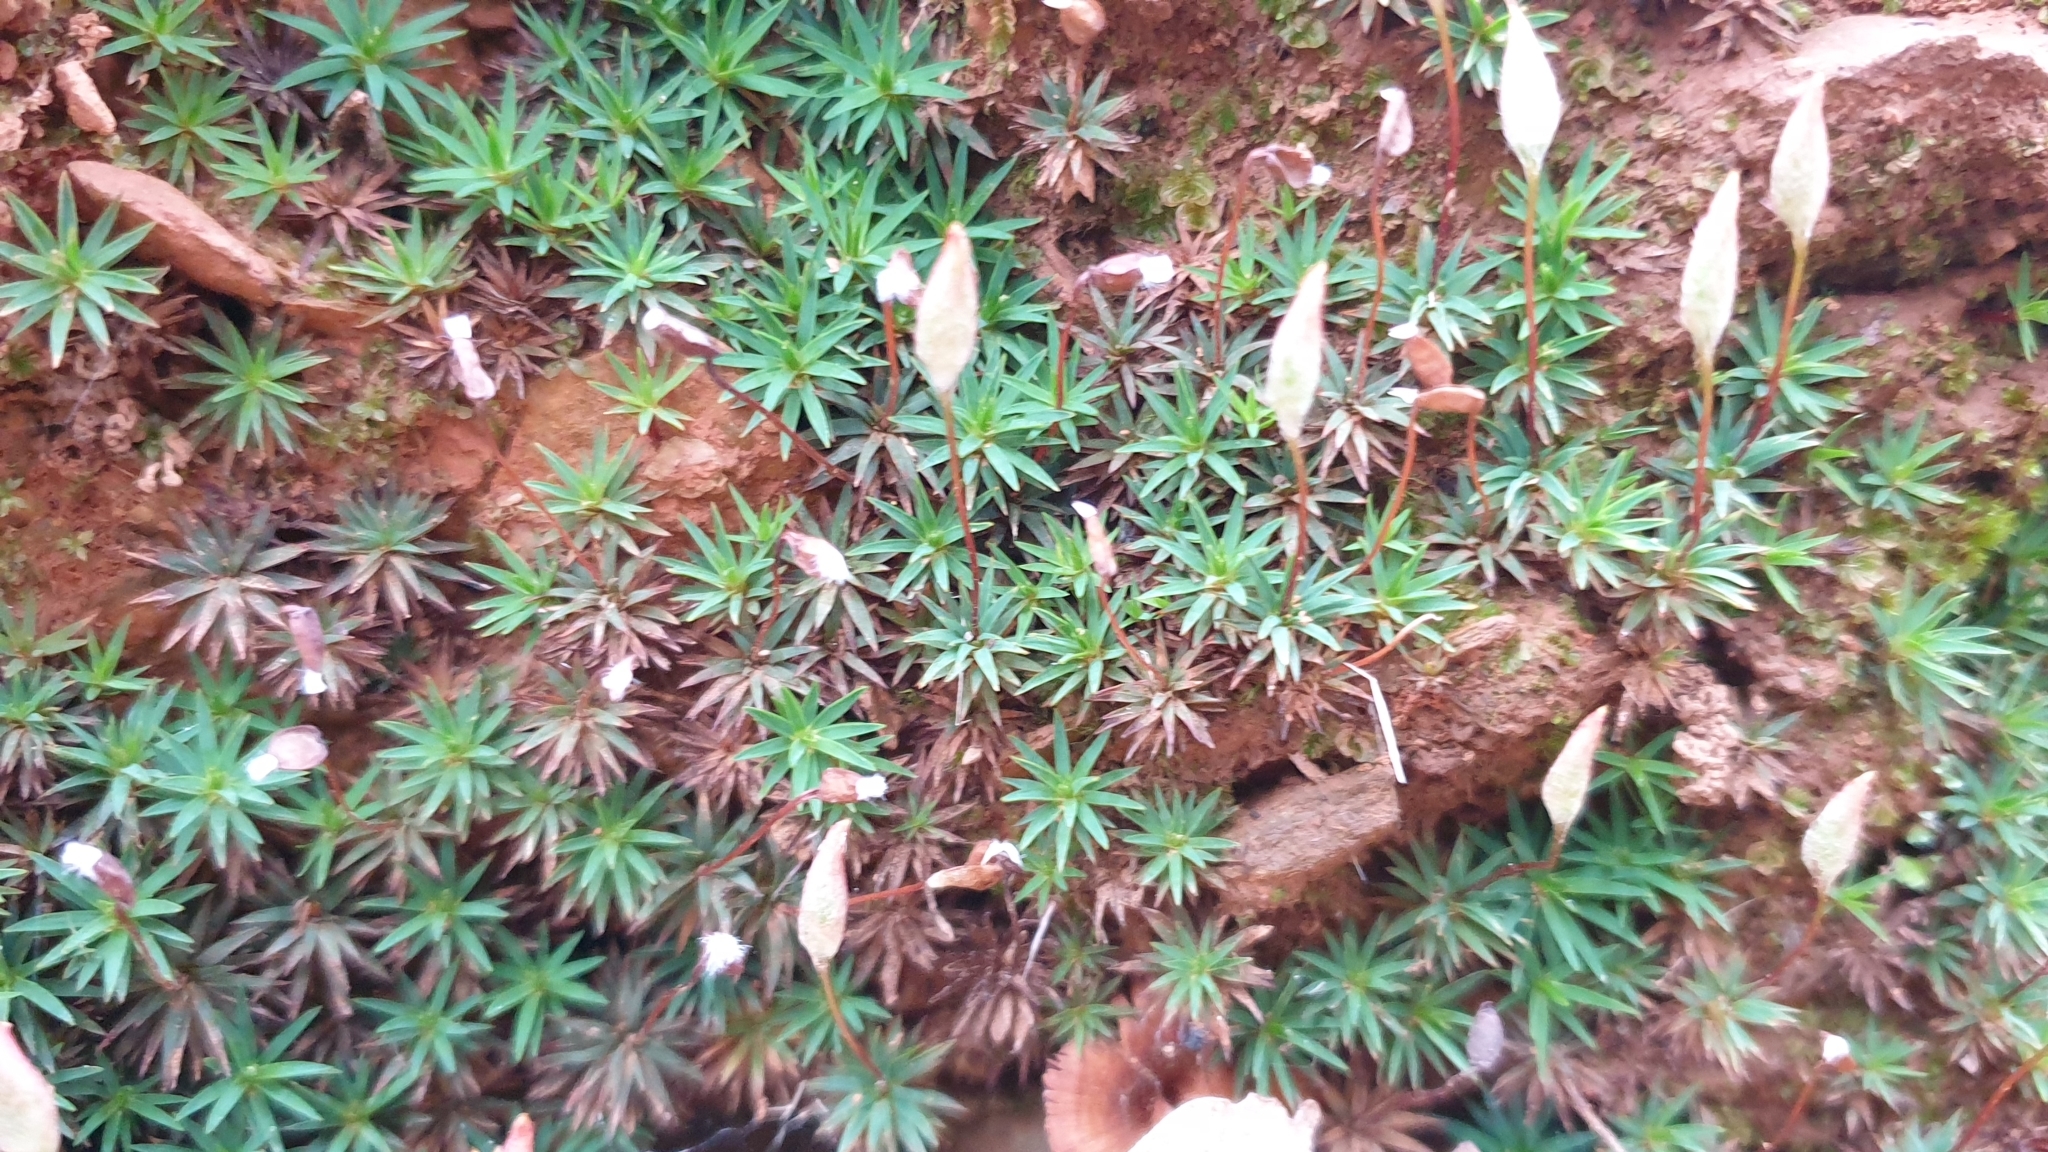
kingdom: Plantae
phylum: Bryophyta
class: Polytrichopsida
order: Polytrichales
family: Polytrichaceae
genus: Dawsonia
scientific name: Dawsonia longiseta
